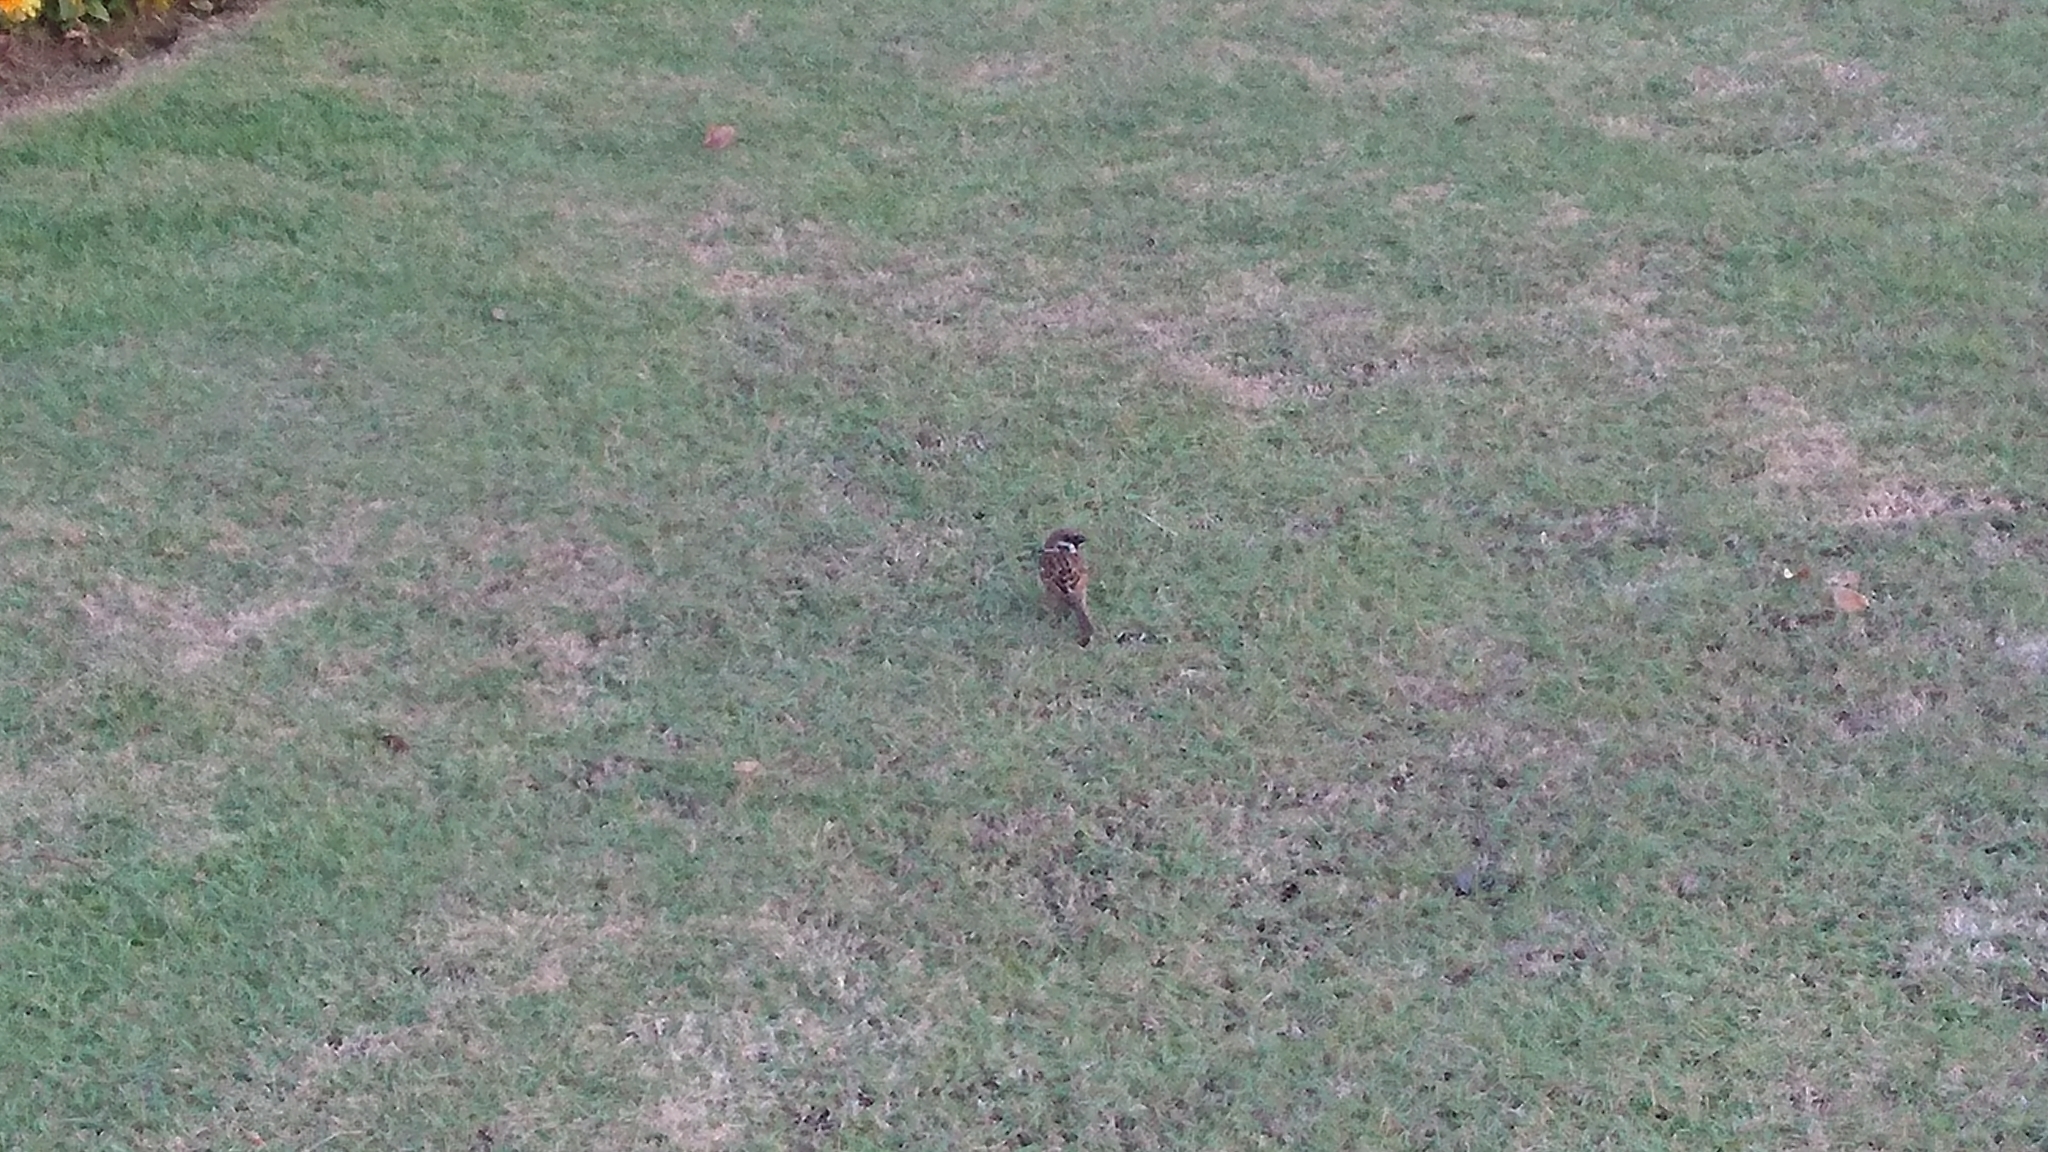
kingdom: Animalia
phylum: Chordata
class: Aves
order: Passeriformes
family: Passeridae
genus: Passer
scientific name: Passer montanus
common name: Eurasian tree sparrow
